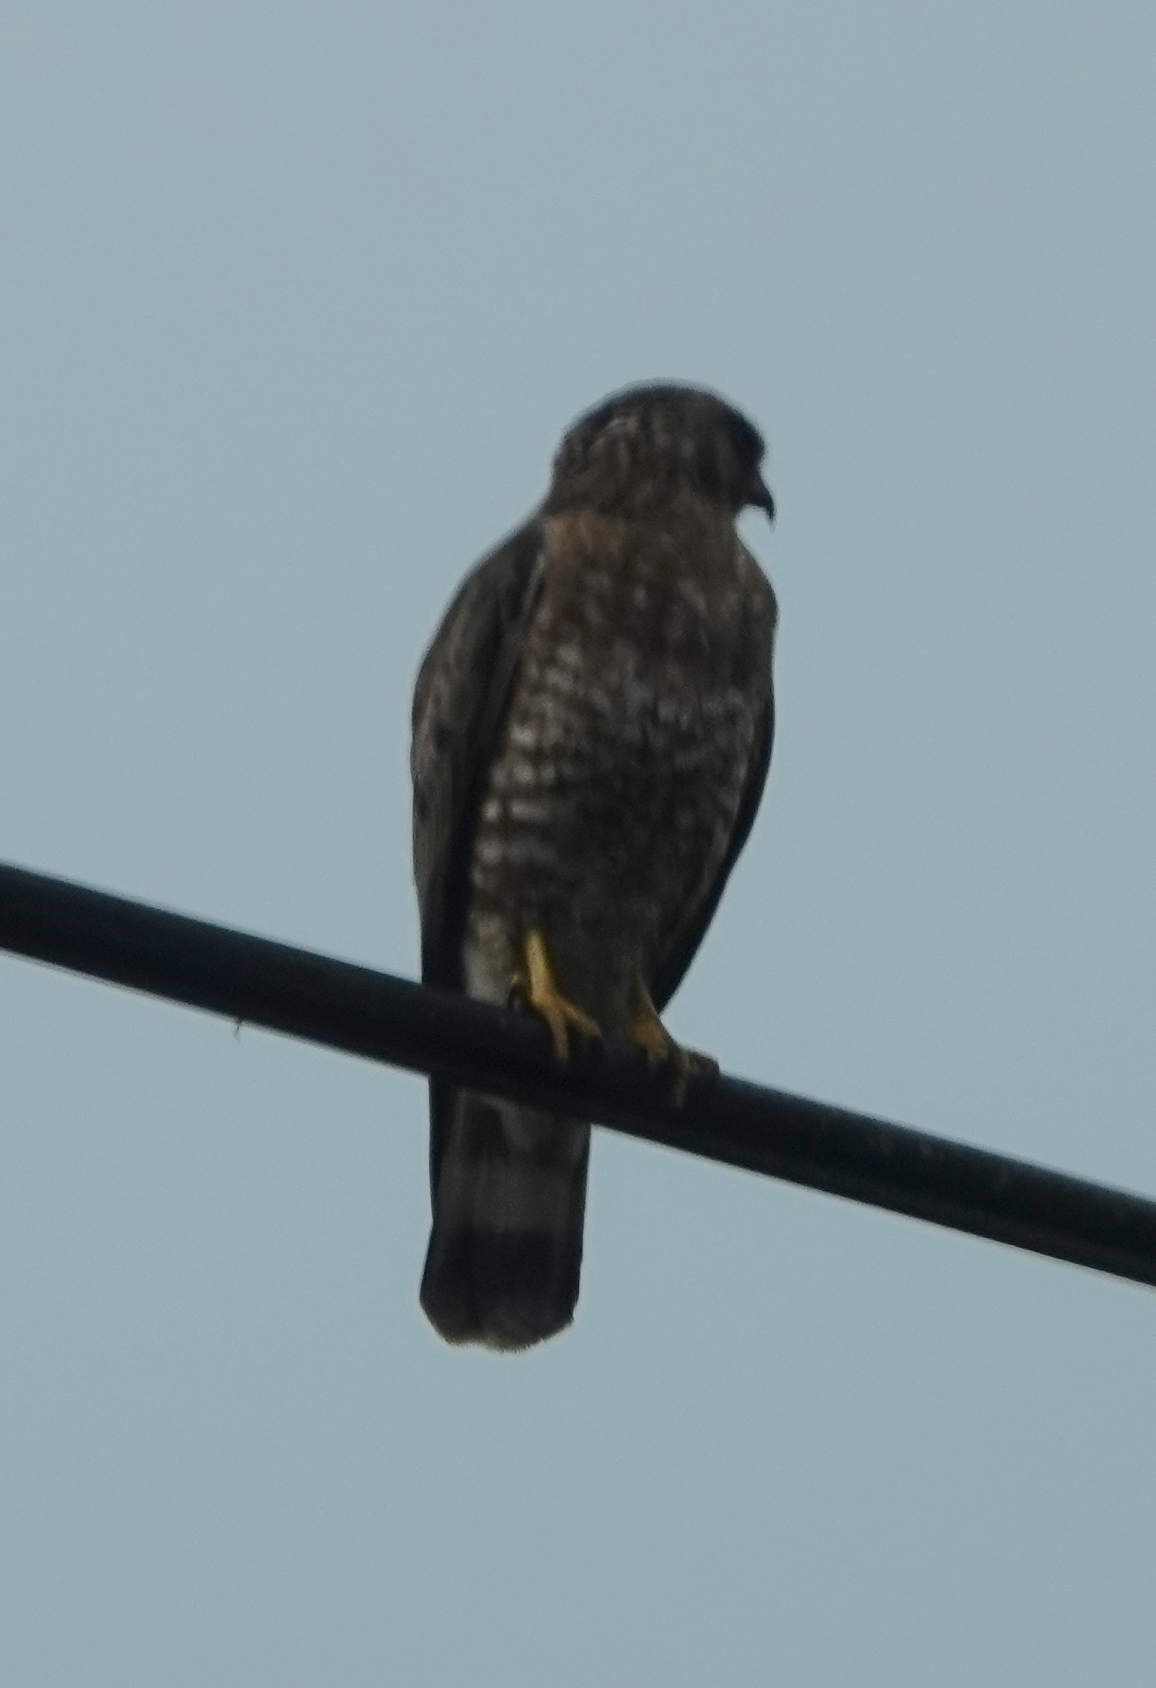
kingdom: Animalia
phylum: Chordata
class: Aves
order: Accipitriformes
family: Accipitridae
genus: Buteo
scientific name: Buteo platypterus
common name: Broad-winged hawk
